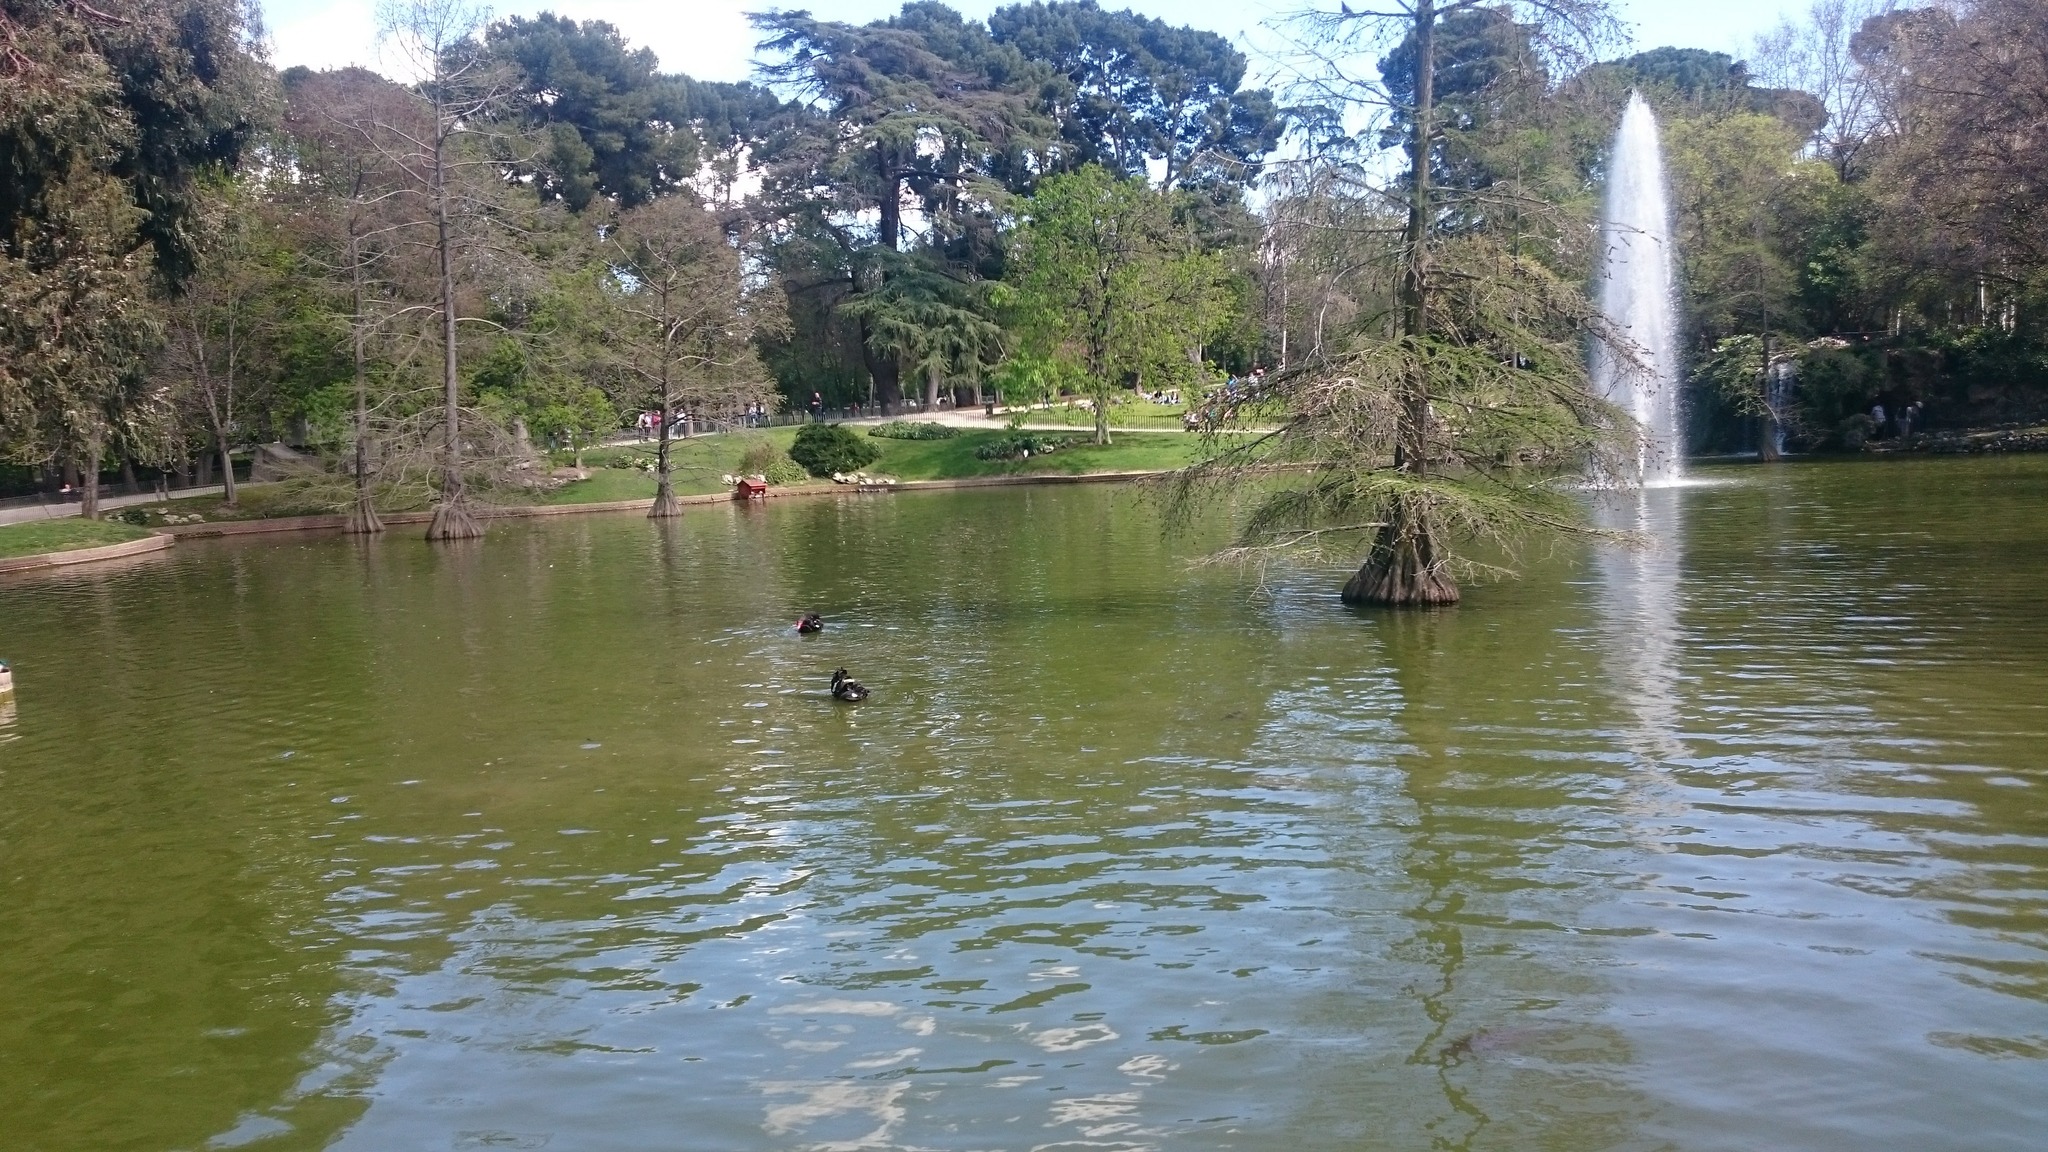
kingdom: Animalia
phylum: Chordata
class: Aves
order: Anseriformes
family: Anatidae
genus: Cygnus
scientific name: Cygnus atratus
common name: Black swan
